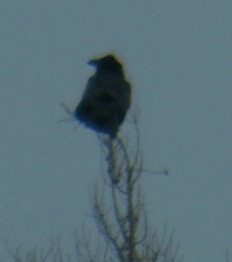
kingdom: Animalia
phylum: Chordata
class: Aves
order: Passeriformes
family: Corvidae
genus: Corvus
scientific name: Corvus corax
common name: Common raven
